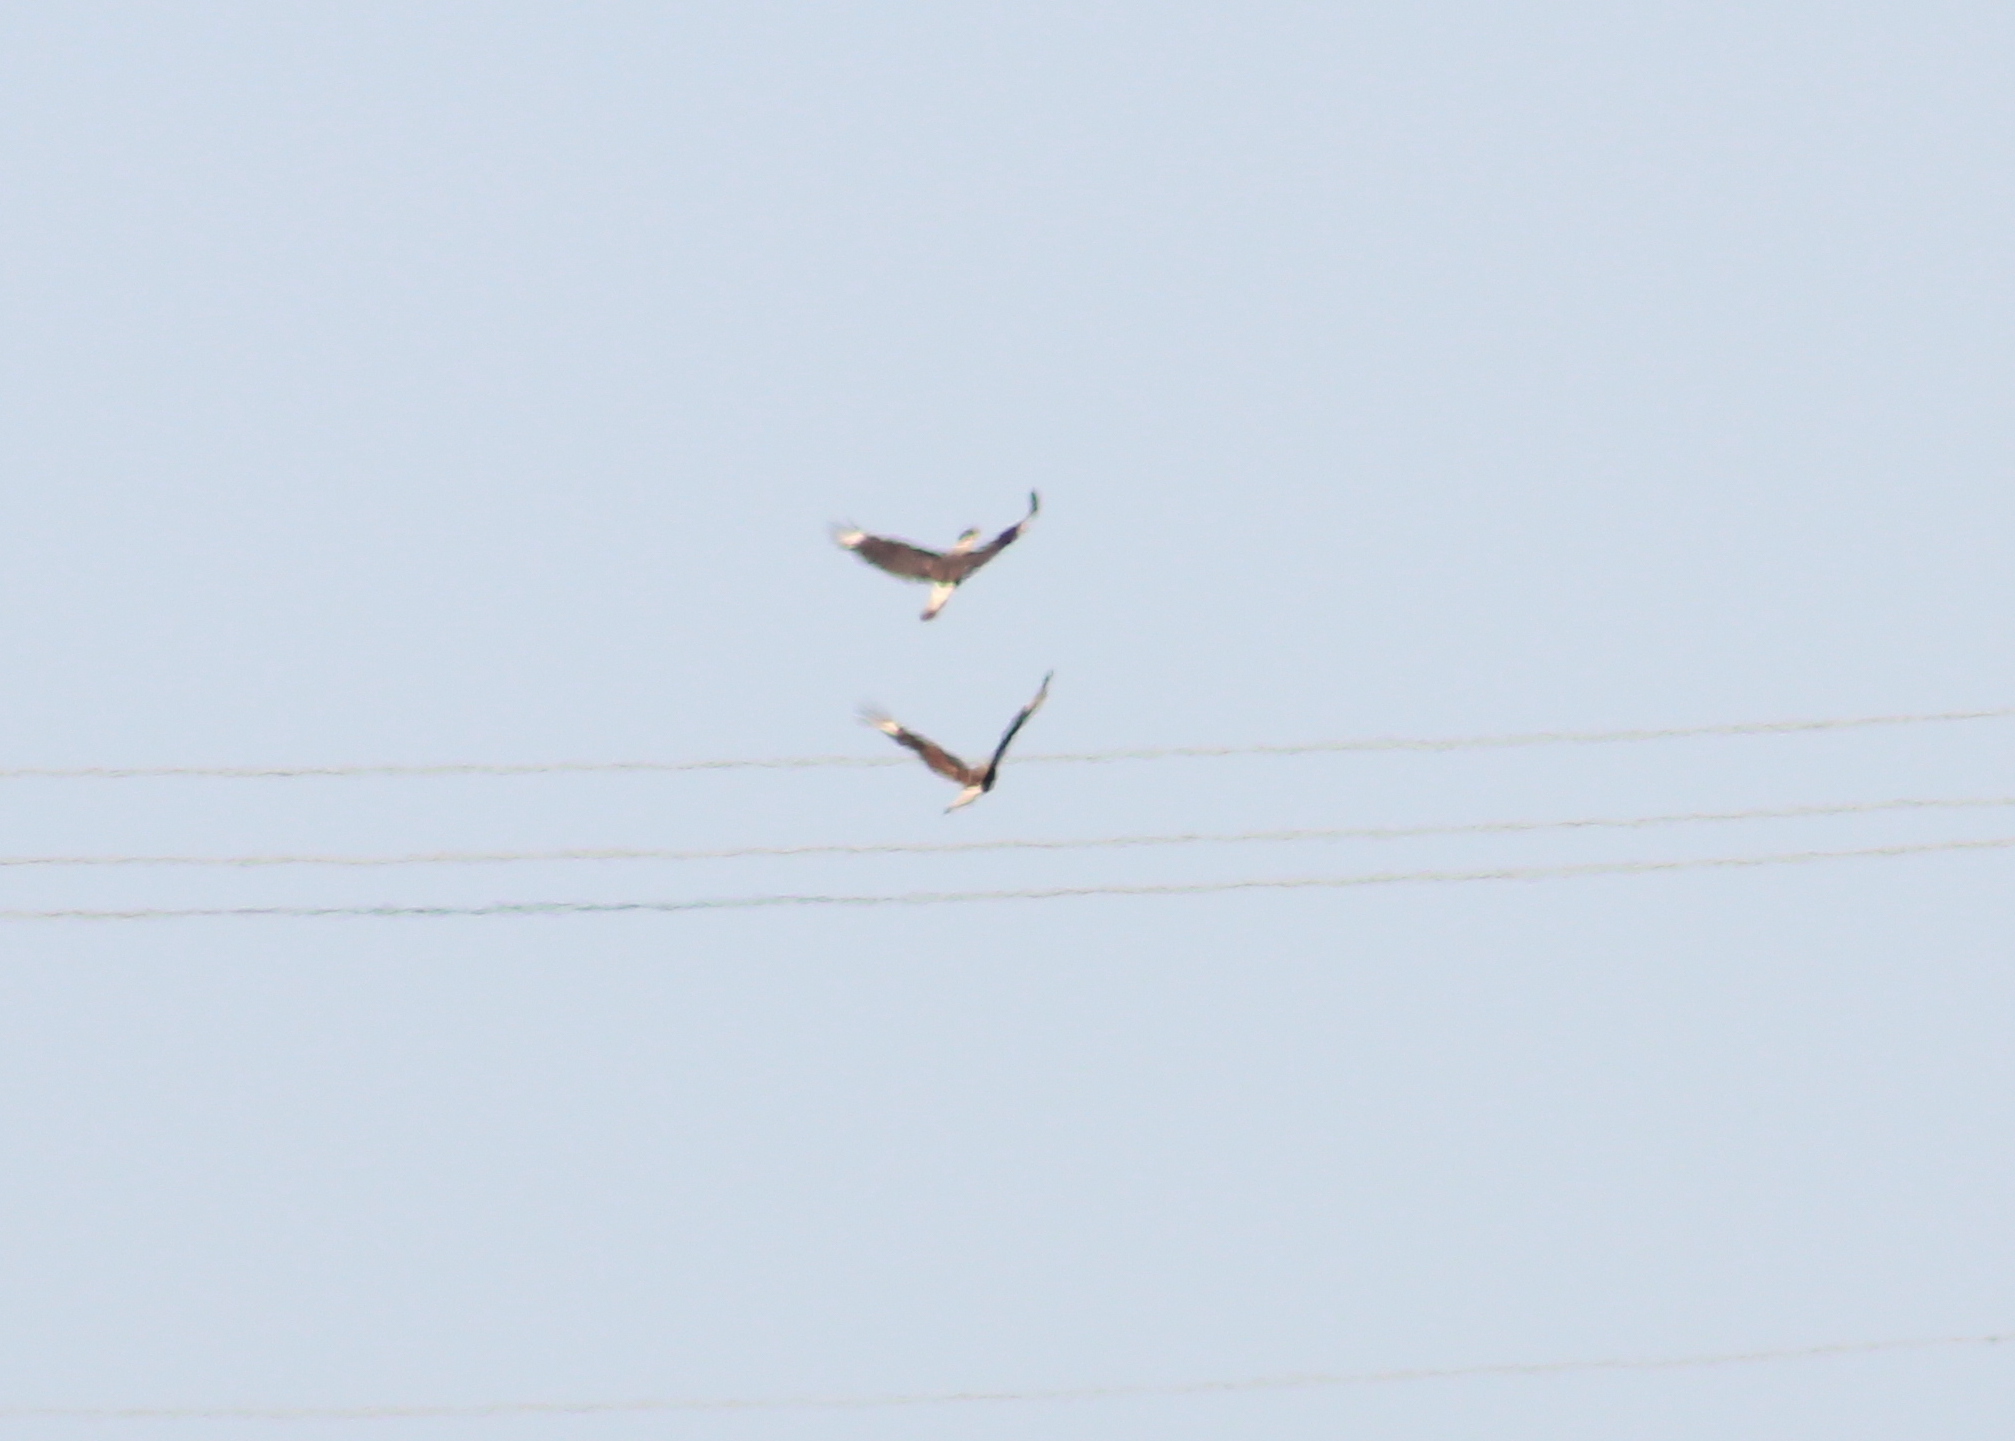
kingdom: Animalia
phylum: Chordata
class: Aves
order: Falconiformes
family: Falconidae
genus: Caracara
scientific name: Caracara plancus
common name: Southern caracara
